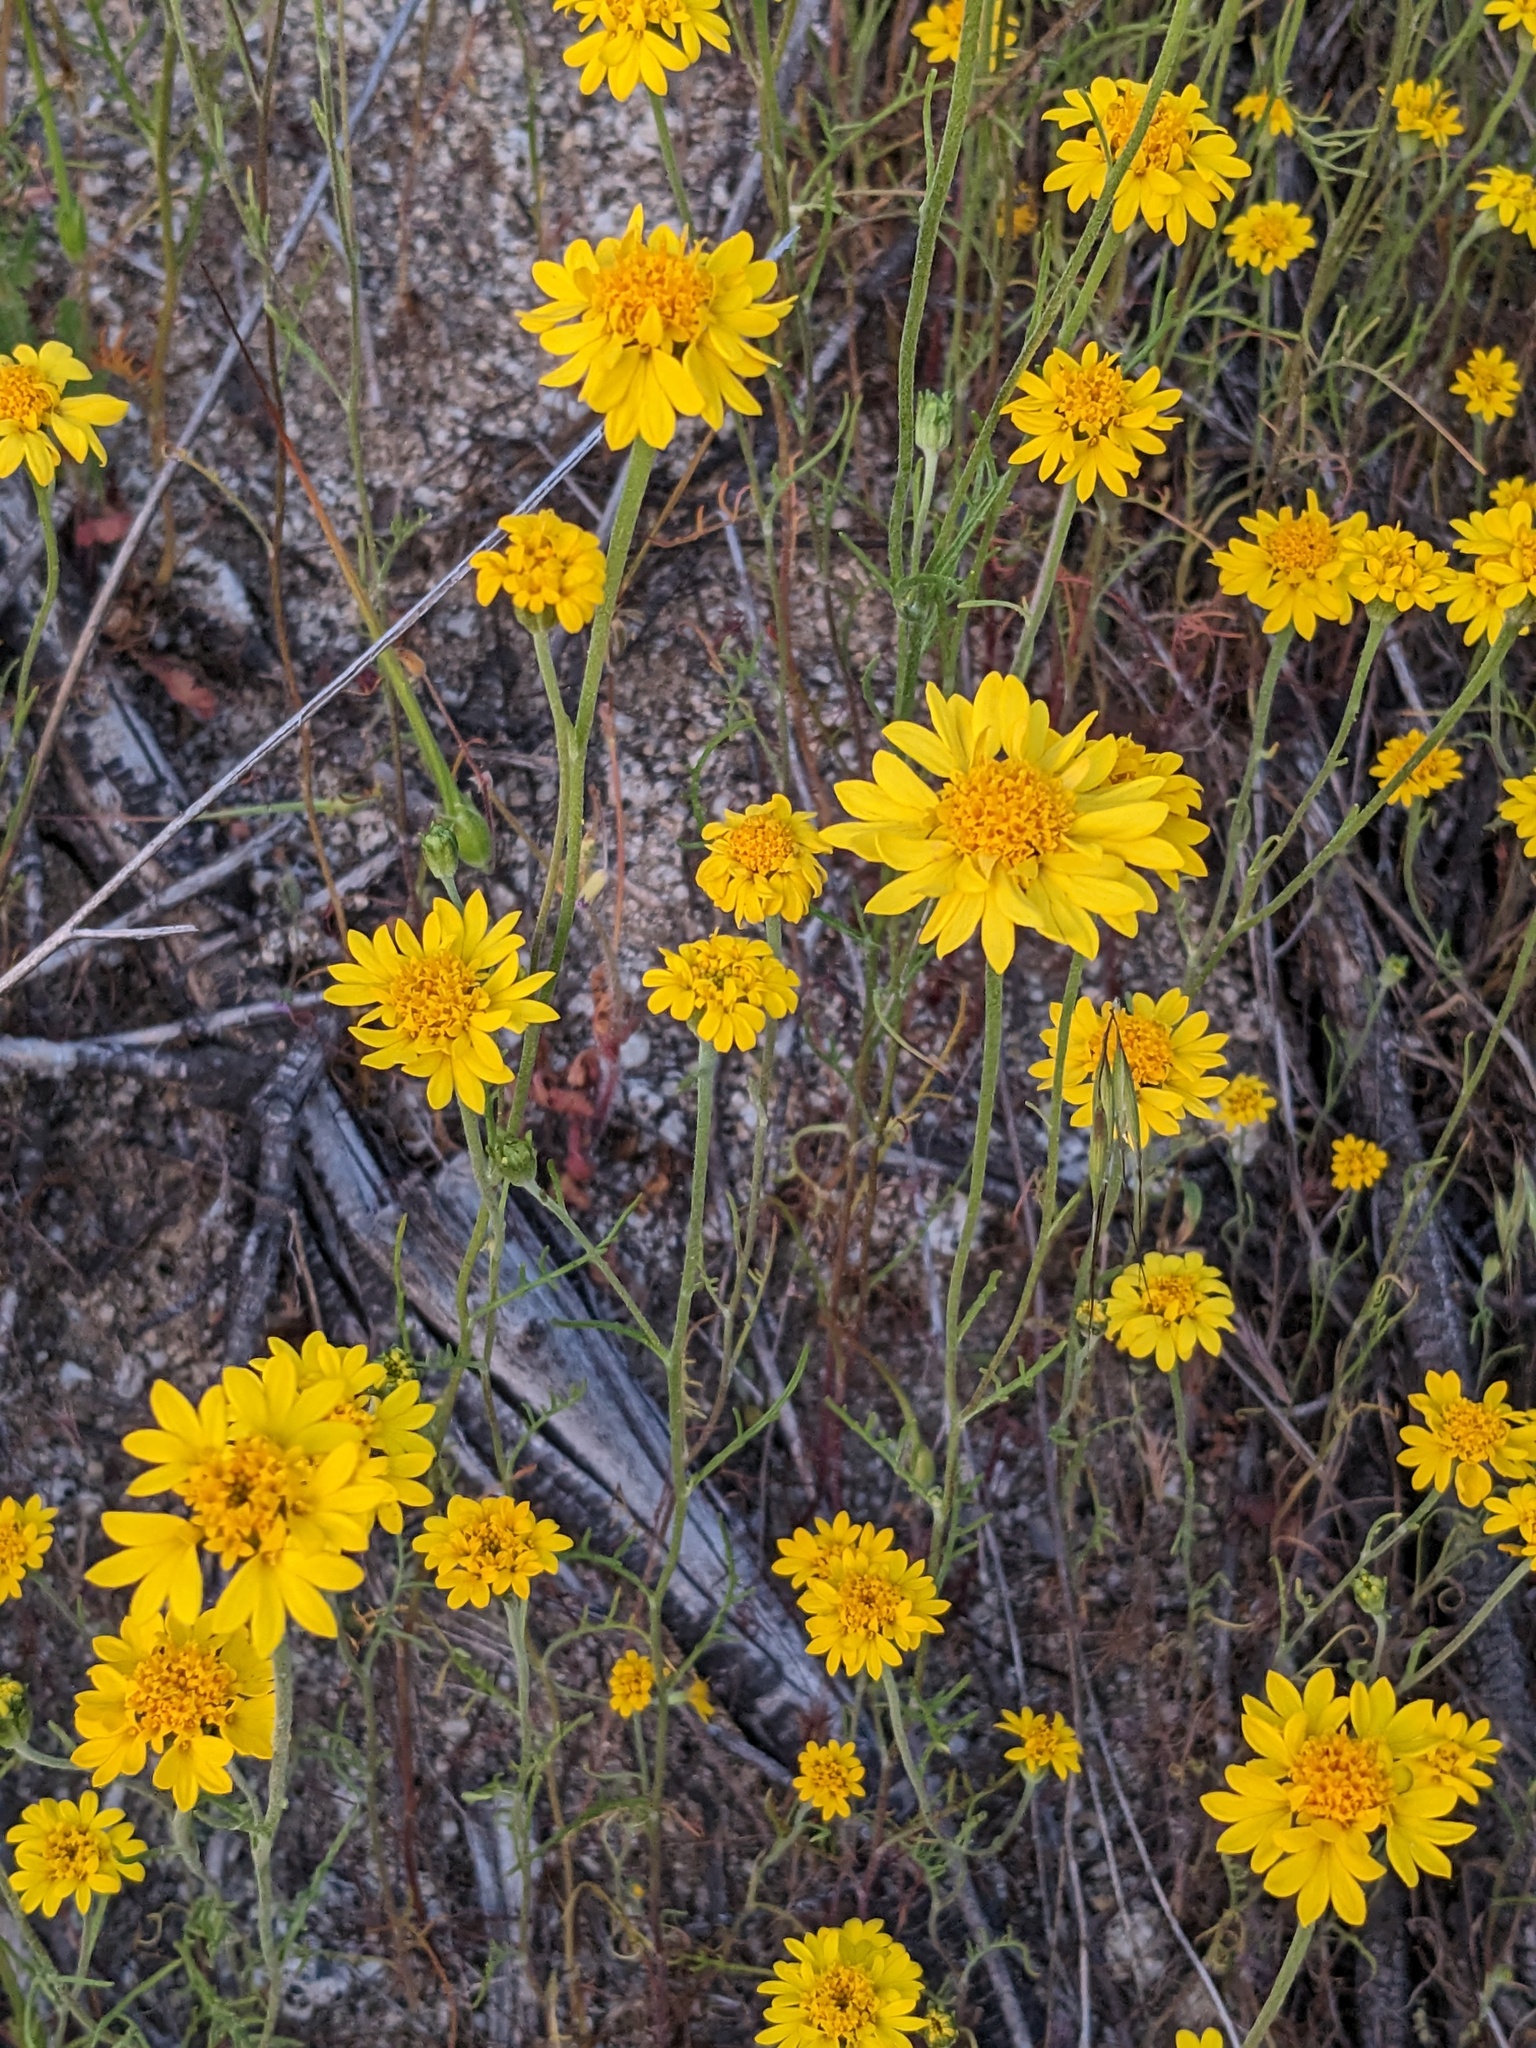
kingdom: Plantae
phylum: Tracheophyta
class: Magnoliopsida
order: Asterales
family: Asteraceae
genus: Chaenactis
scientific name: Chaenactis glabriuscula
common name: Yellow pincushion
